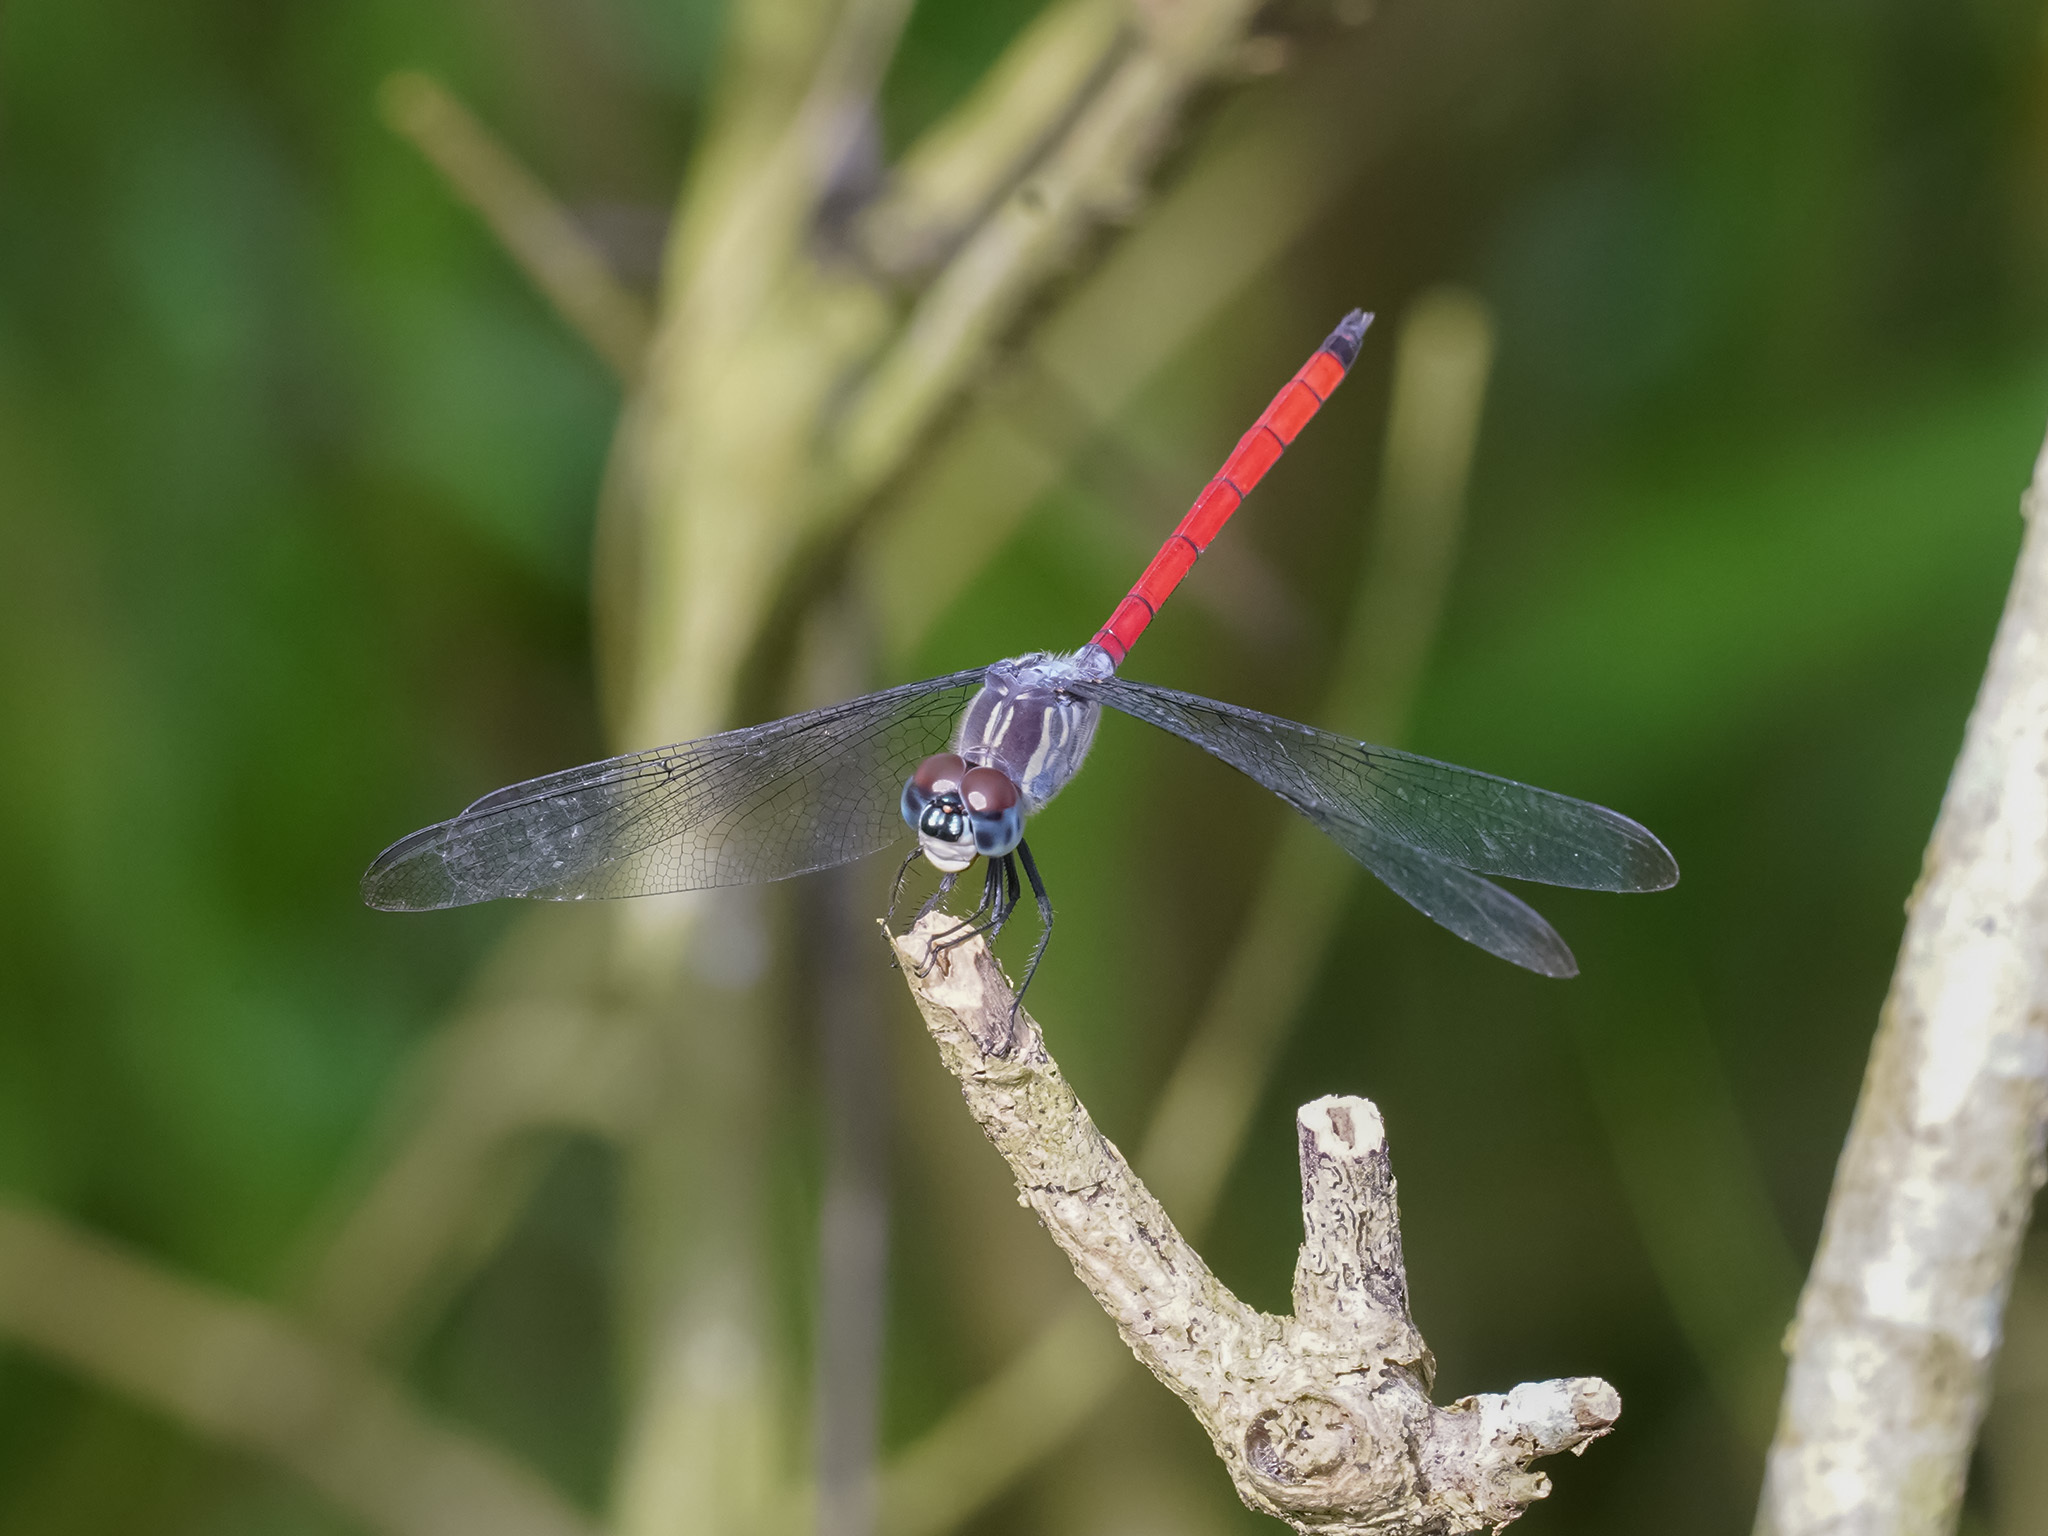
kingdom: Animalia
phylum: Arthropoda
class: Insecta
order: Odonata
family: Libellulidae
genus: Lathrecista
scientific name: Lathrecista asiatica
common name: Scarlet grenadier
